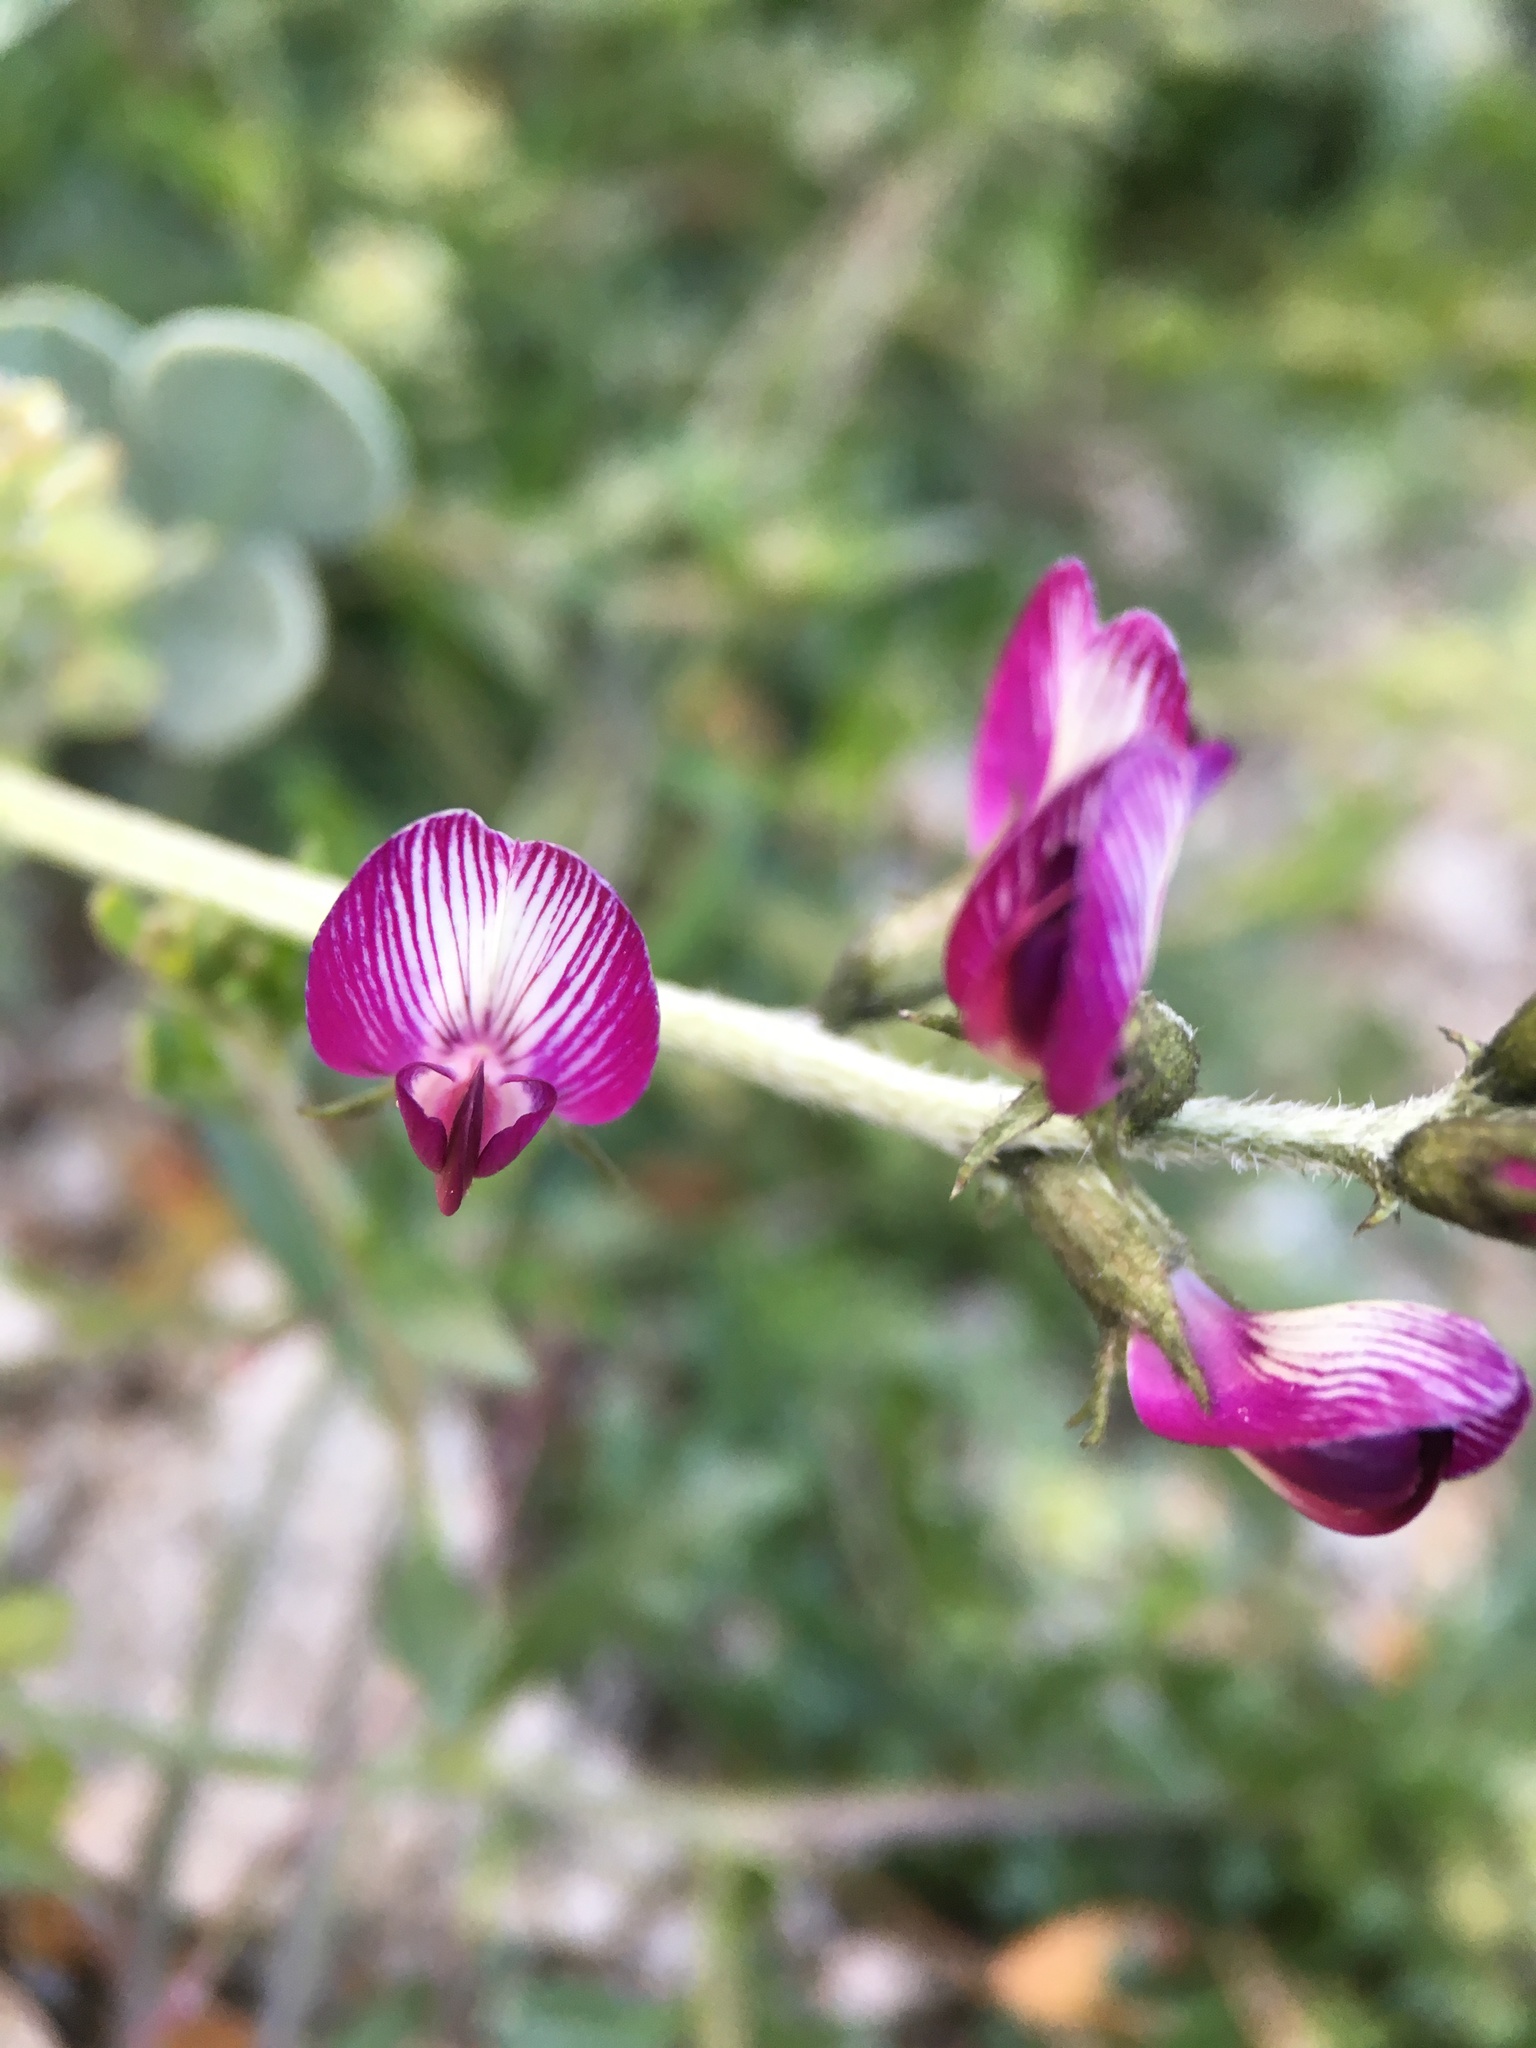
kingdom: Plantae
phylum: Tracheophyta
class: Magnoliopsida
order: Fabales
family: Fabaceae
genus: Astragalus
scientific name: Astragalus mohavensis
